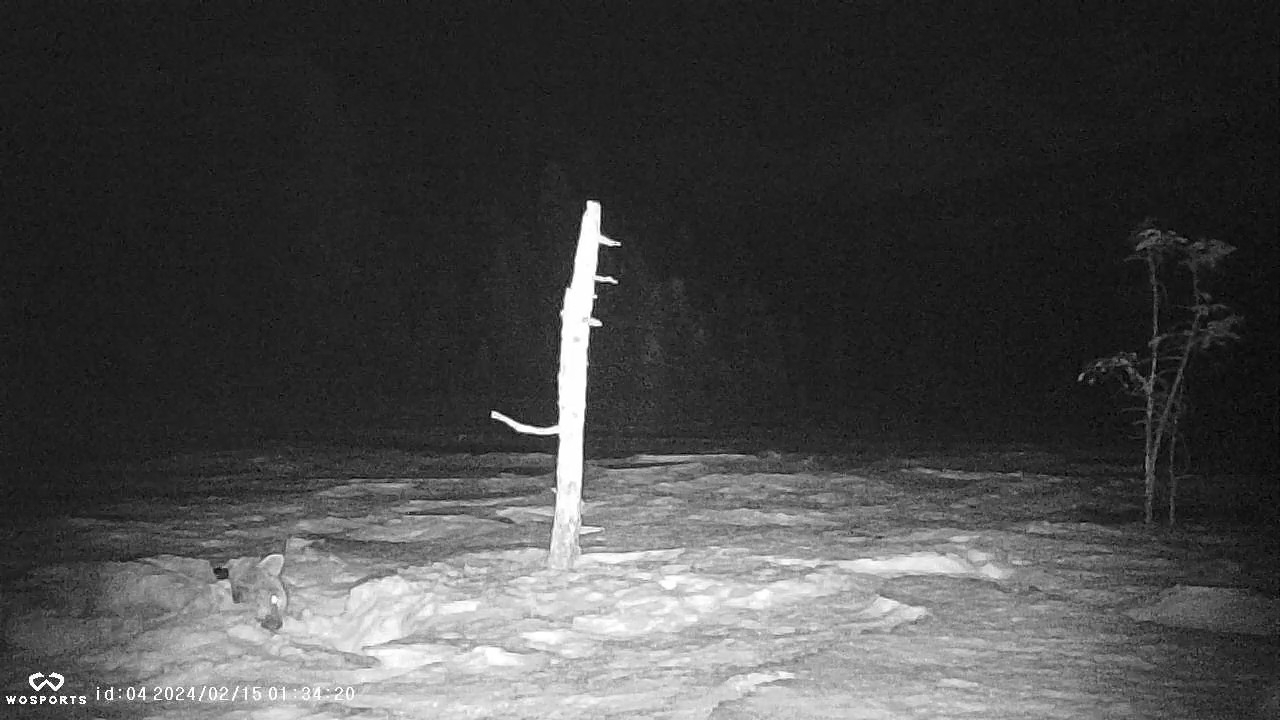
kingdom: Animalia
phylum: Chordata
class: Mammalia
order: Carnivora
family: Felidae
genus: Lynx
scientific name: Lynx canadensis
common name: Canadian lynx
